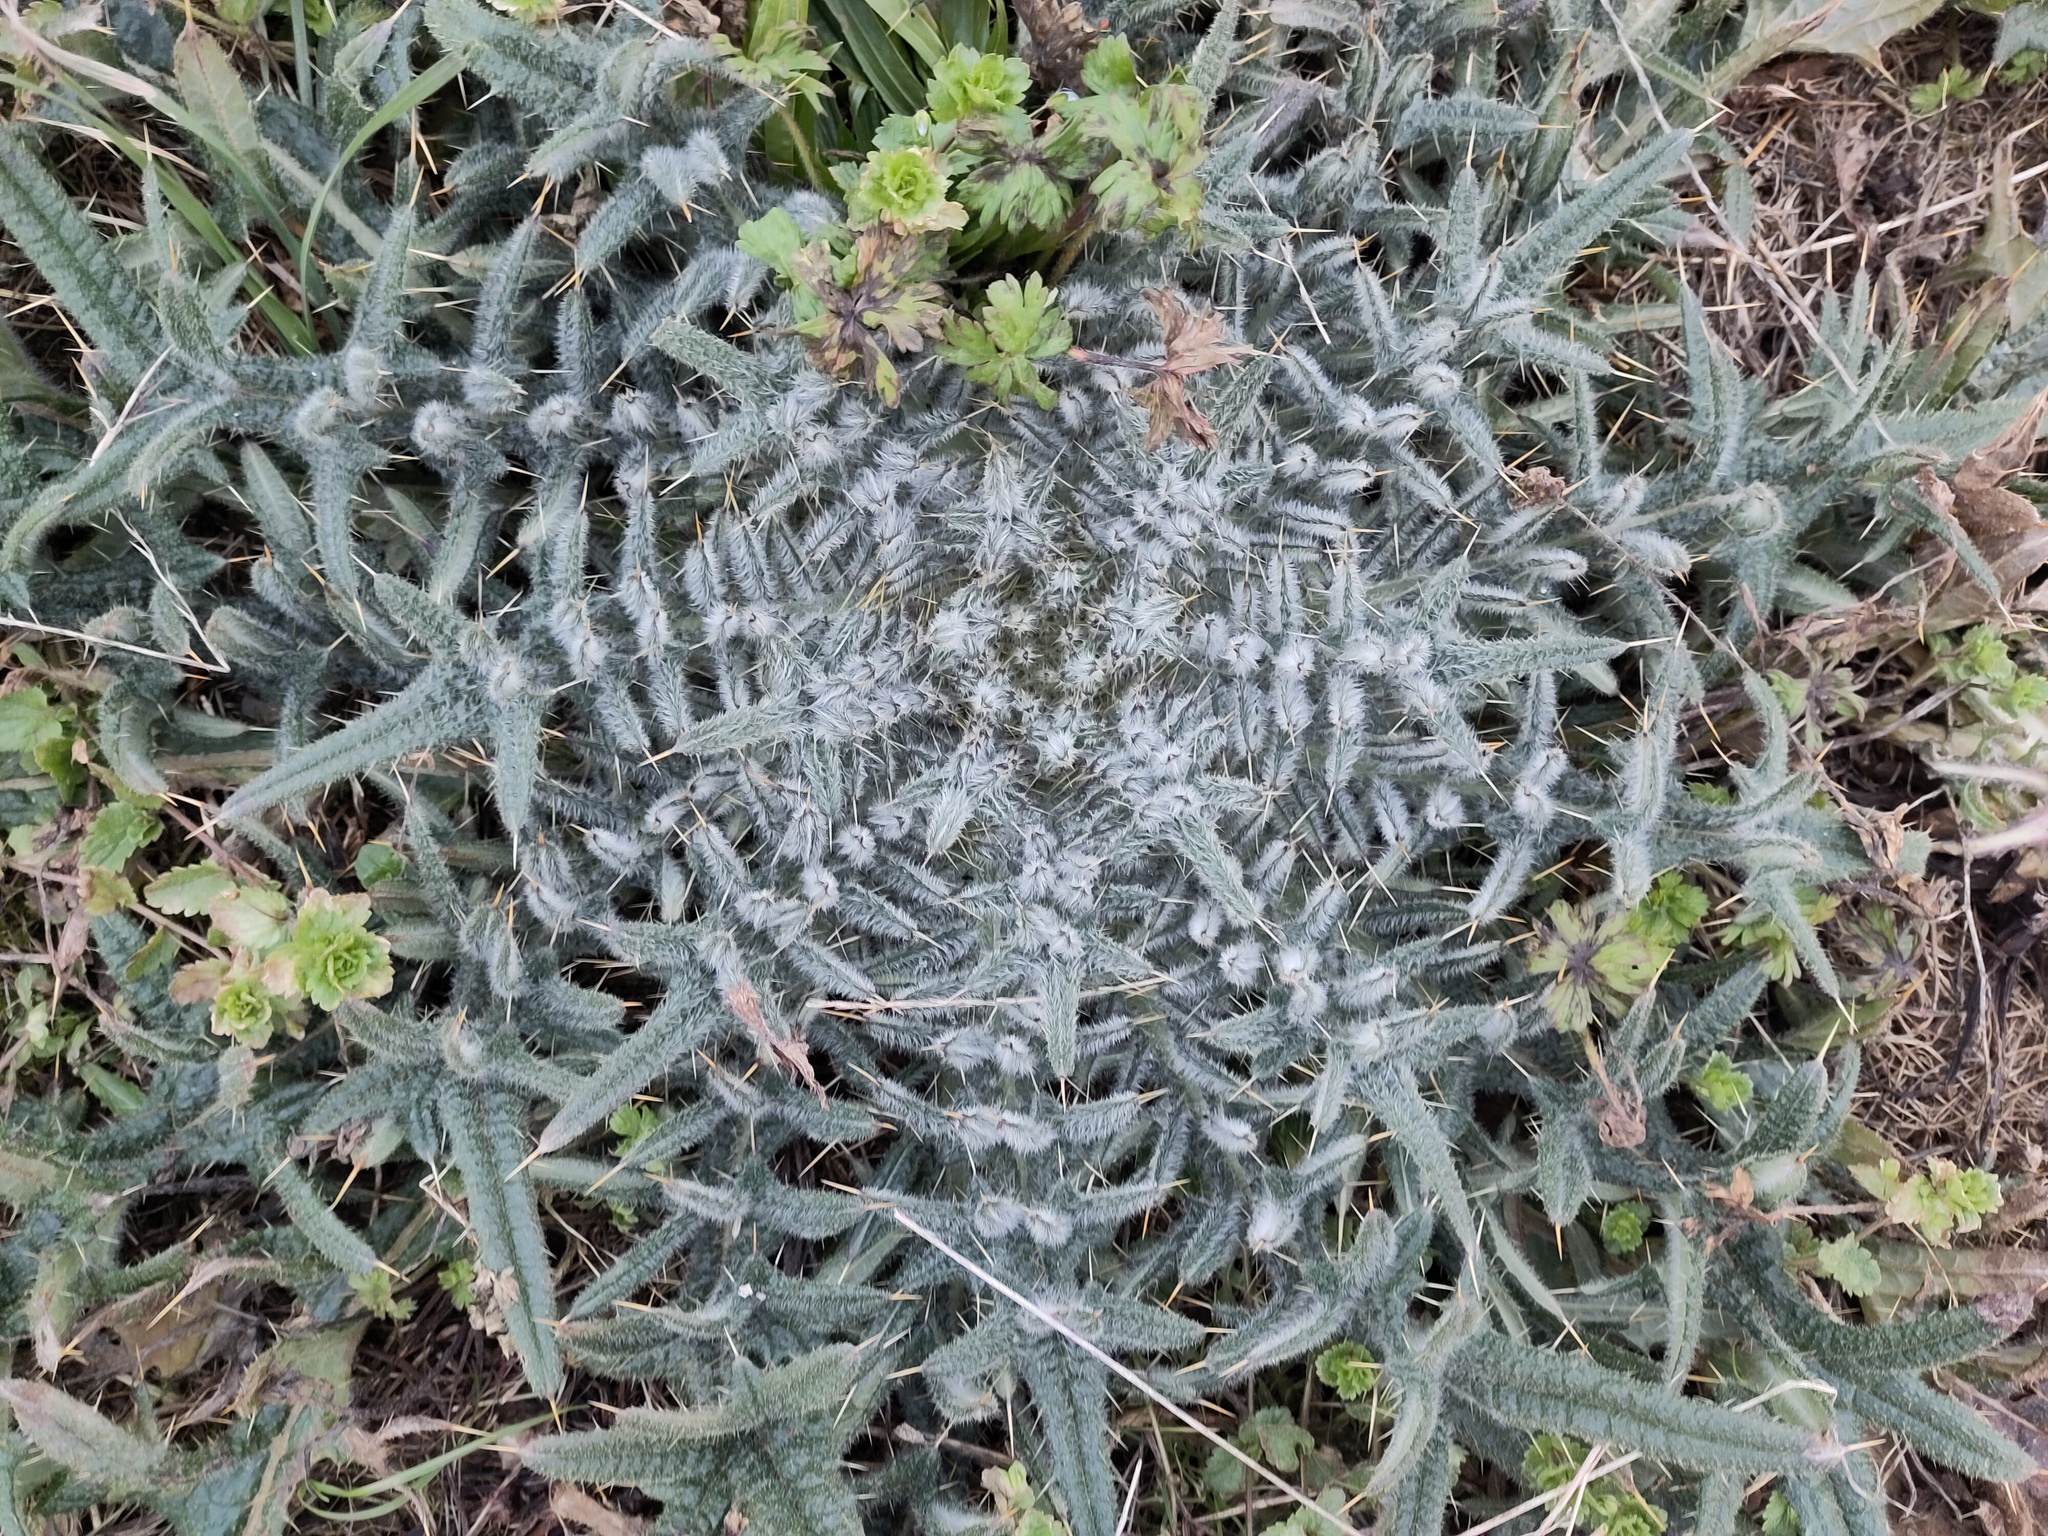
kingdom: Plantae
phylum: Tracheophyta
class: Magnoliopsida
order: Asterales
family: Asteraceae
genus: Cirsium
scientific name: Cirsium vulgare
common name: Bull thistle
